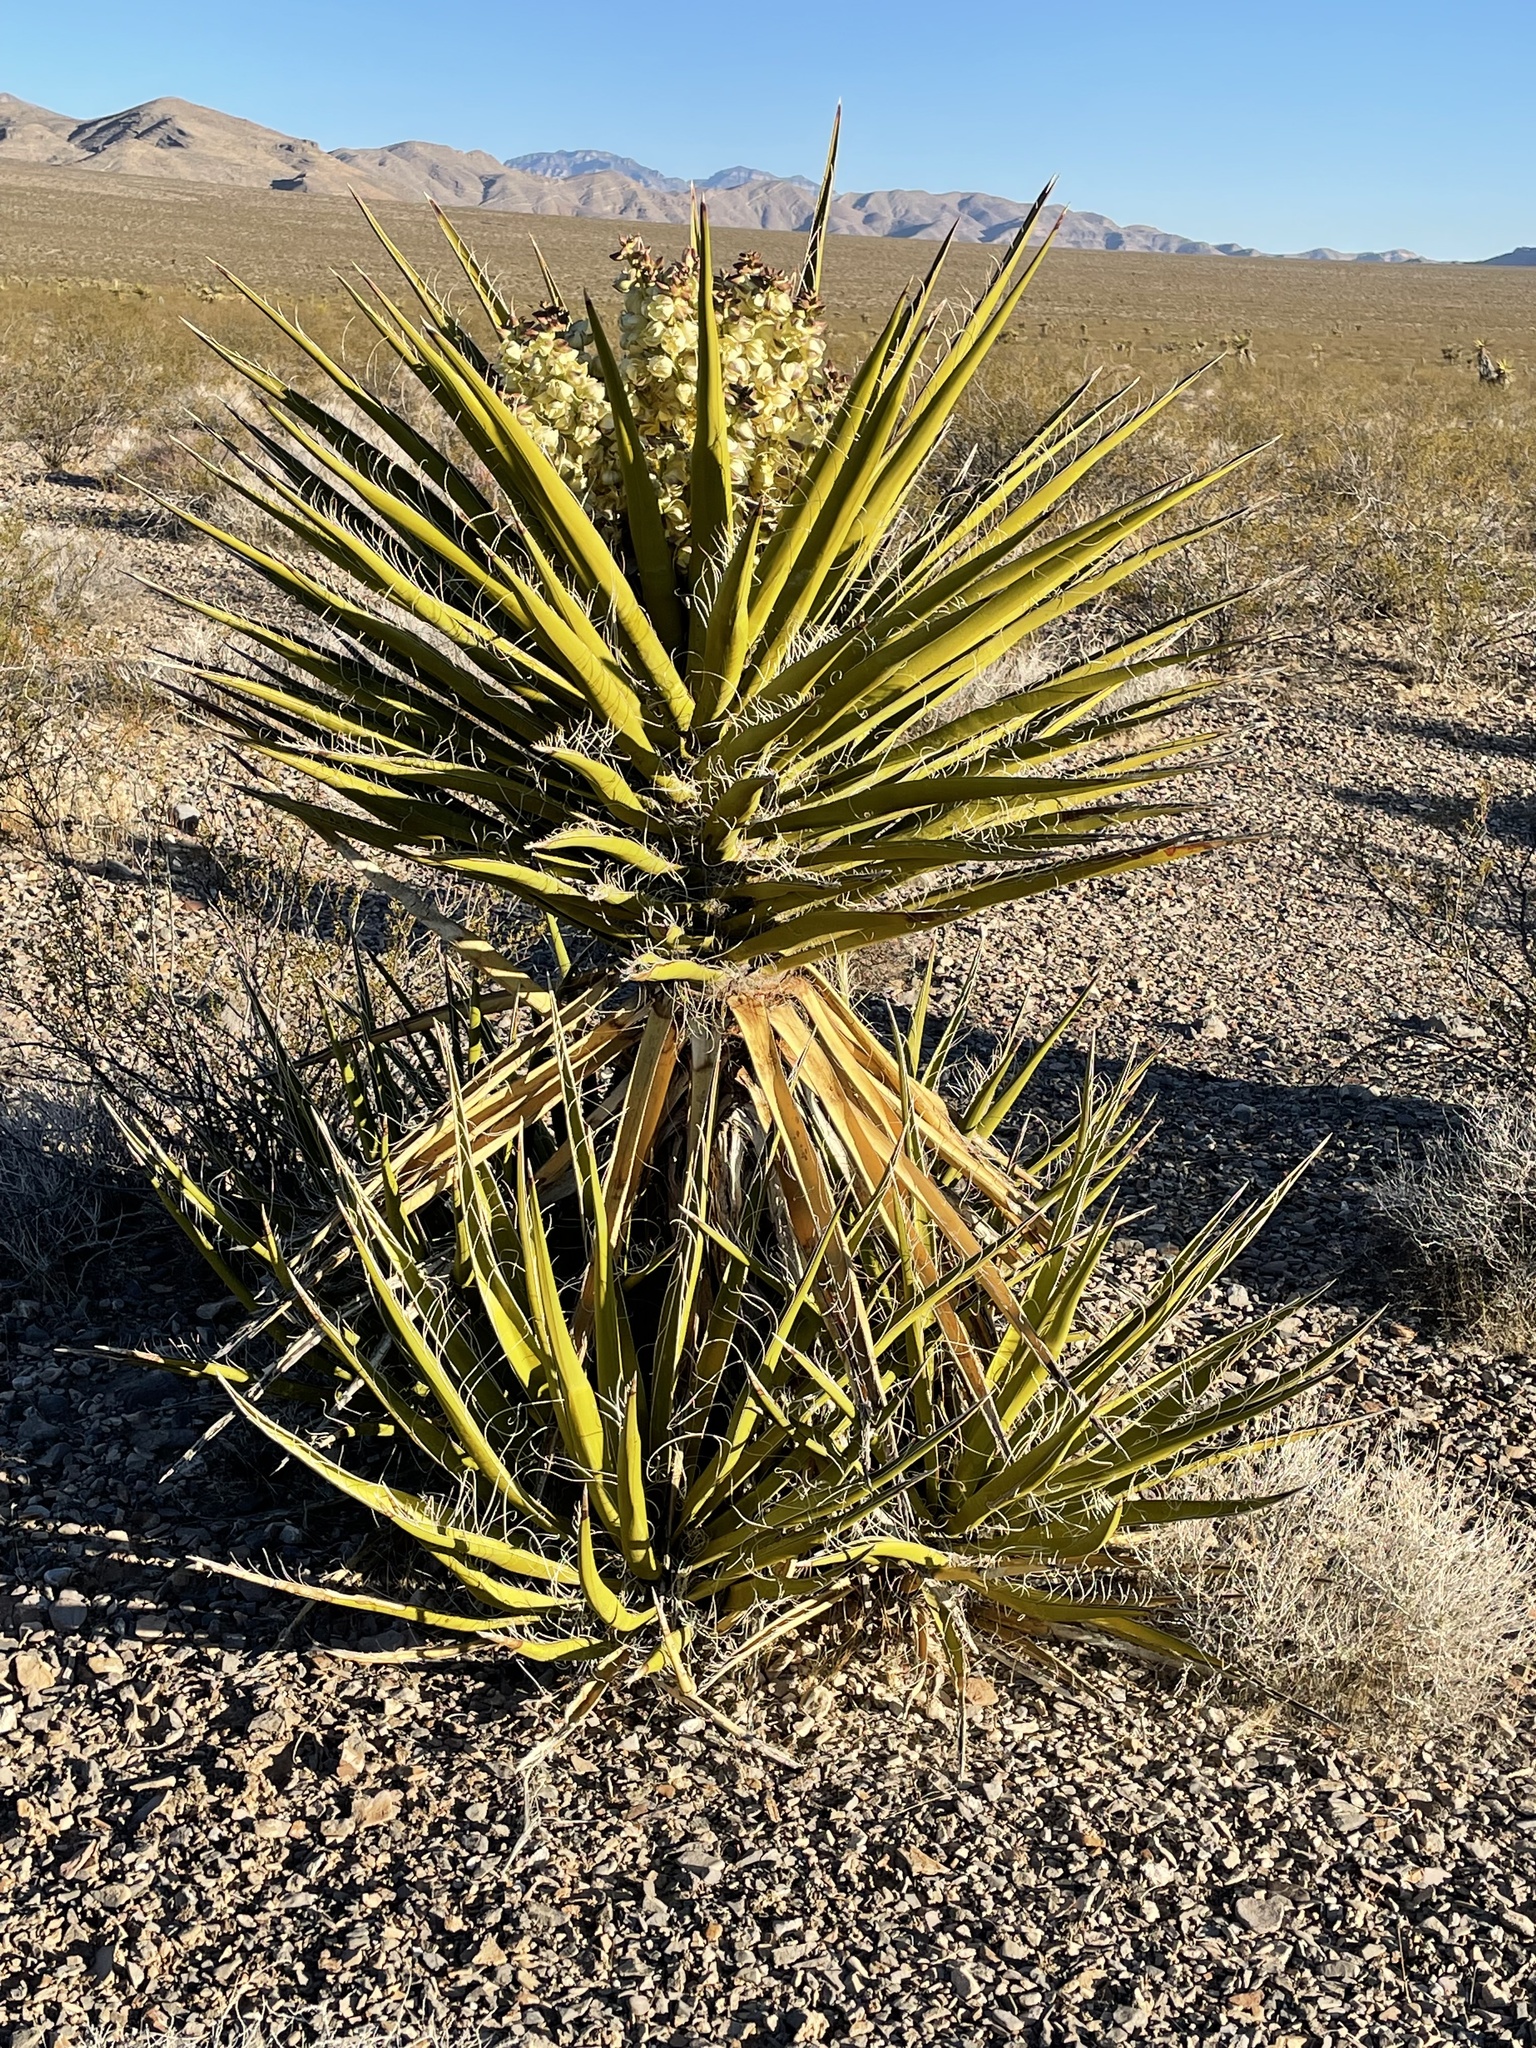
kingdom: Plantae
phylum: Tracheophyta
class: Liliopsida
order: Asparagales
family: Asparagaceae
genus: Yucca
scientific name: Yucca schidigera
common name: Mojave yucca
